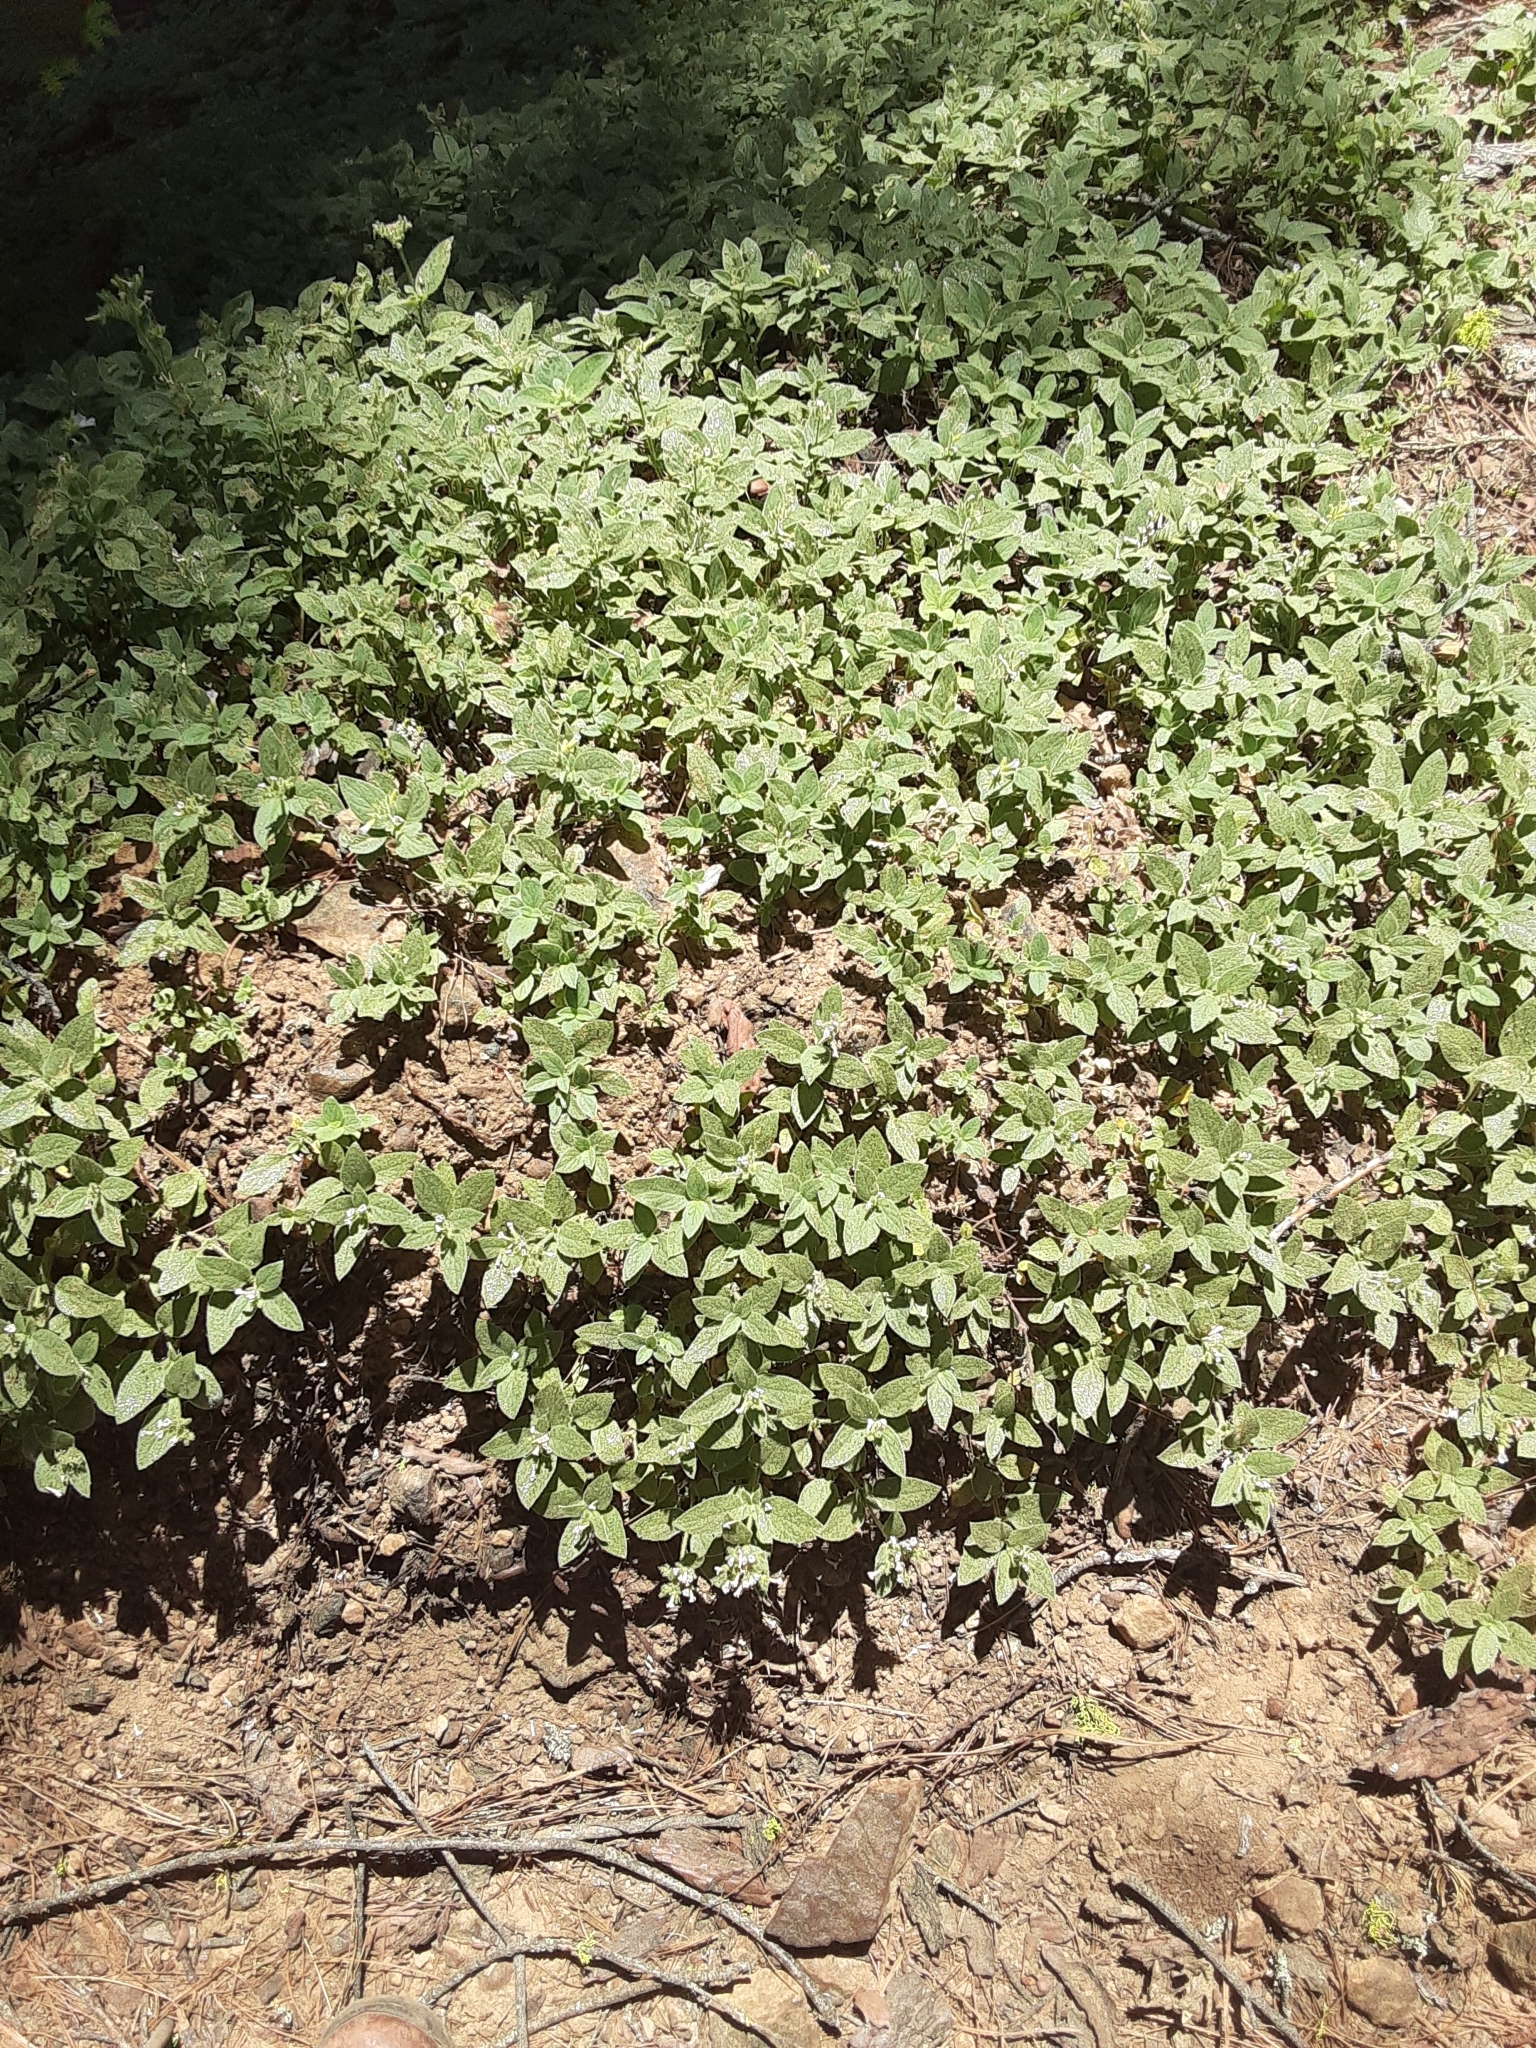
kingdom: Plantae
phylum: Tracheophyta
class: Magnoliopsida
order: Boraginales
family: Hydrophyllaceae
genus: Draperia
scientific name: Draperia systyla
